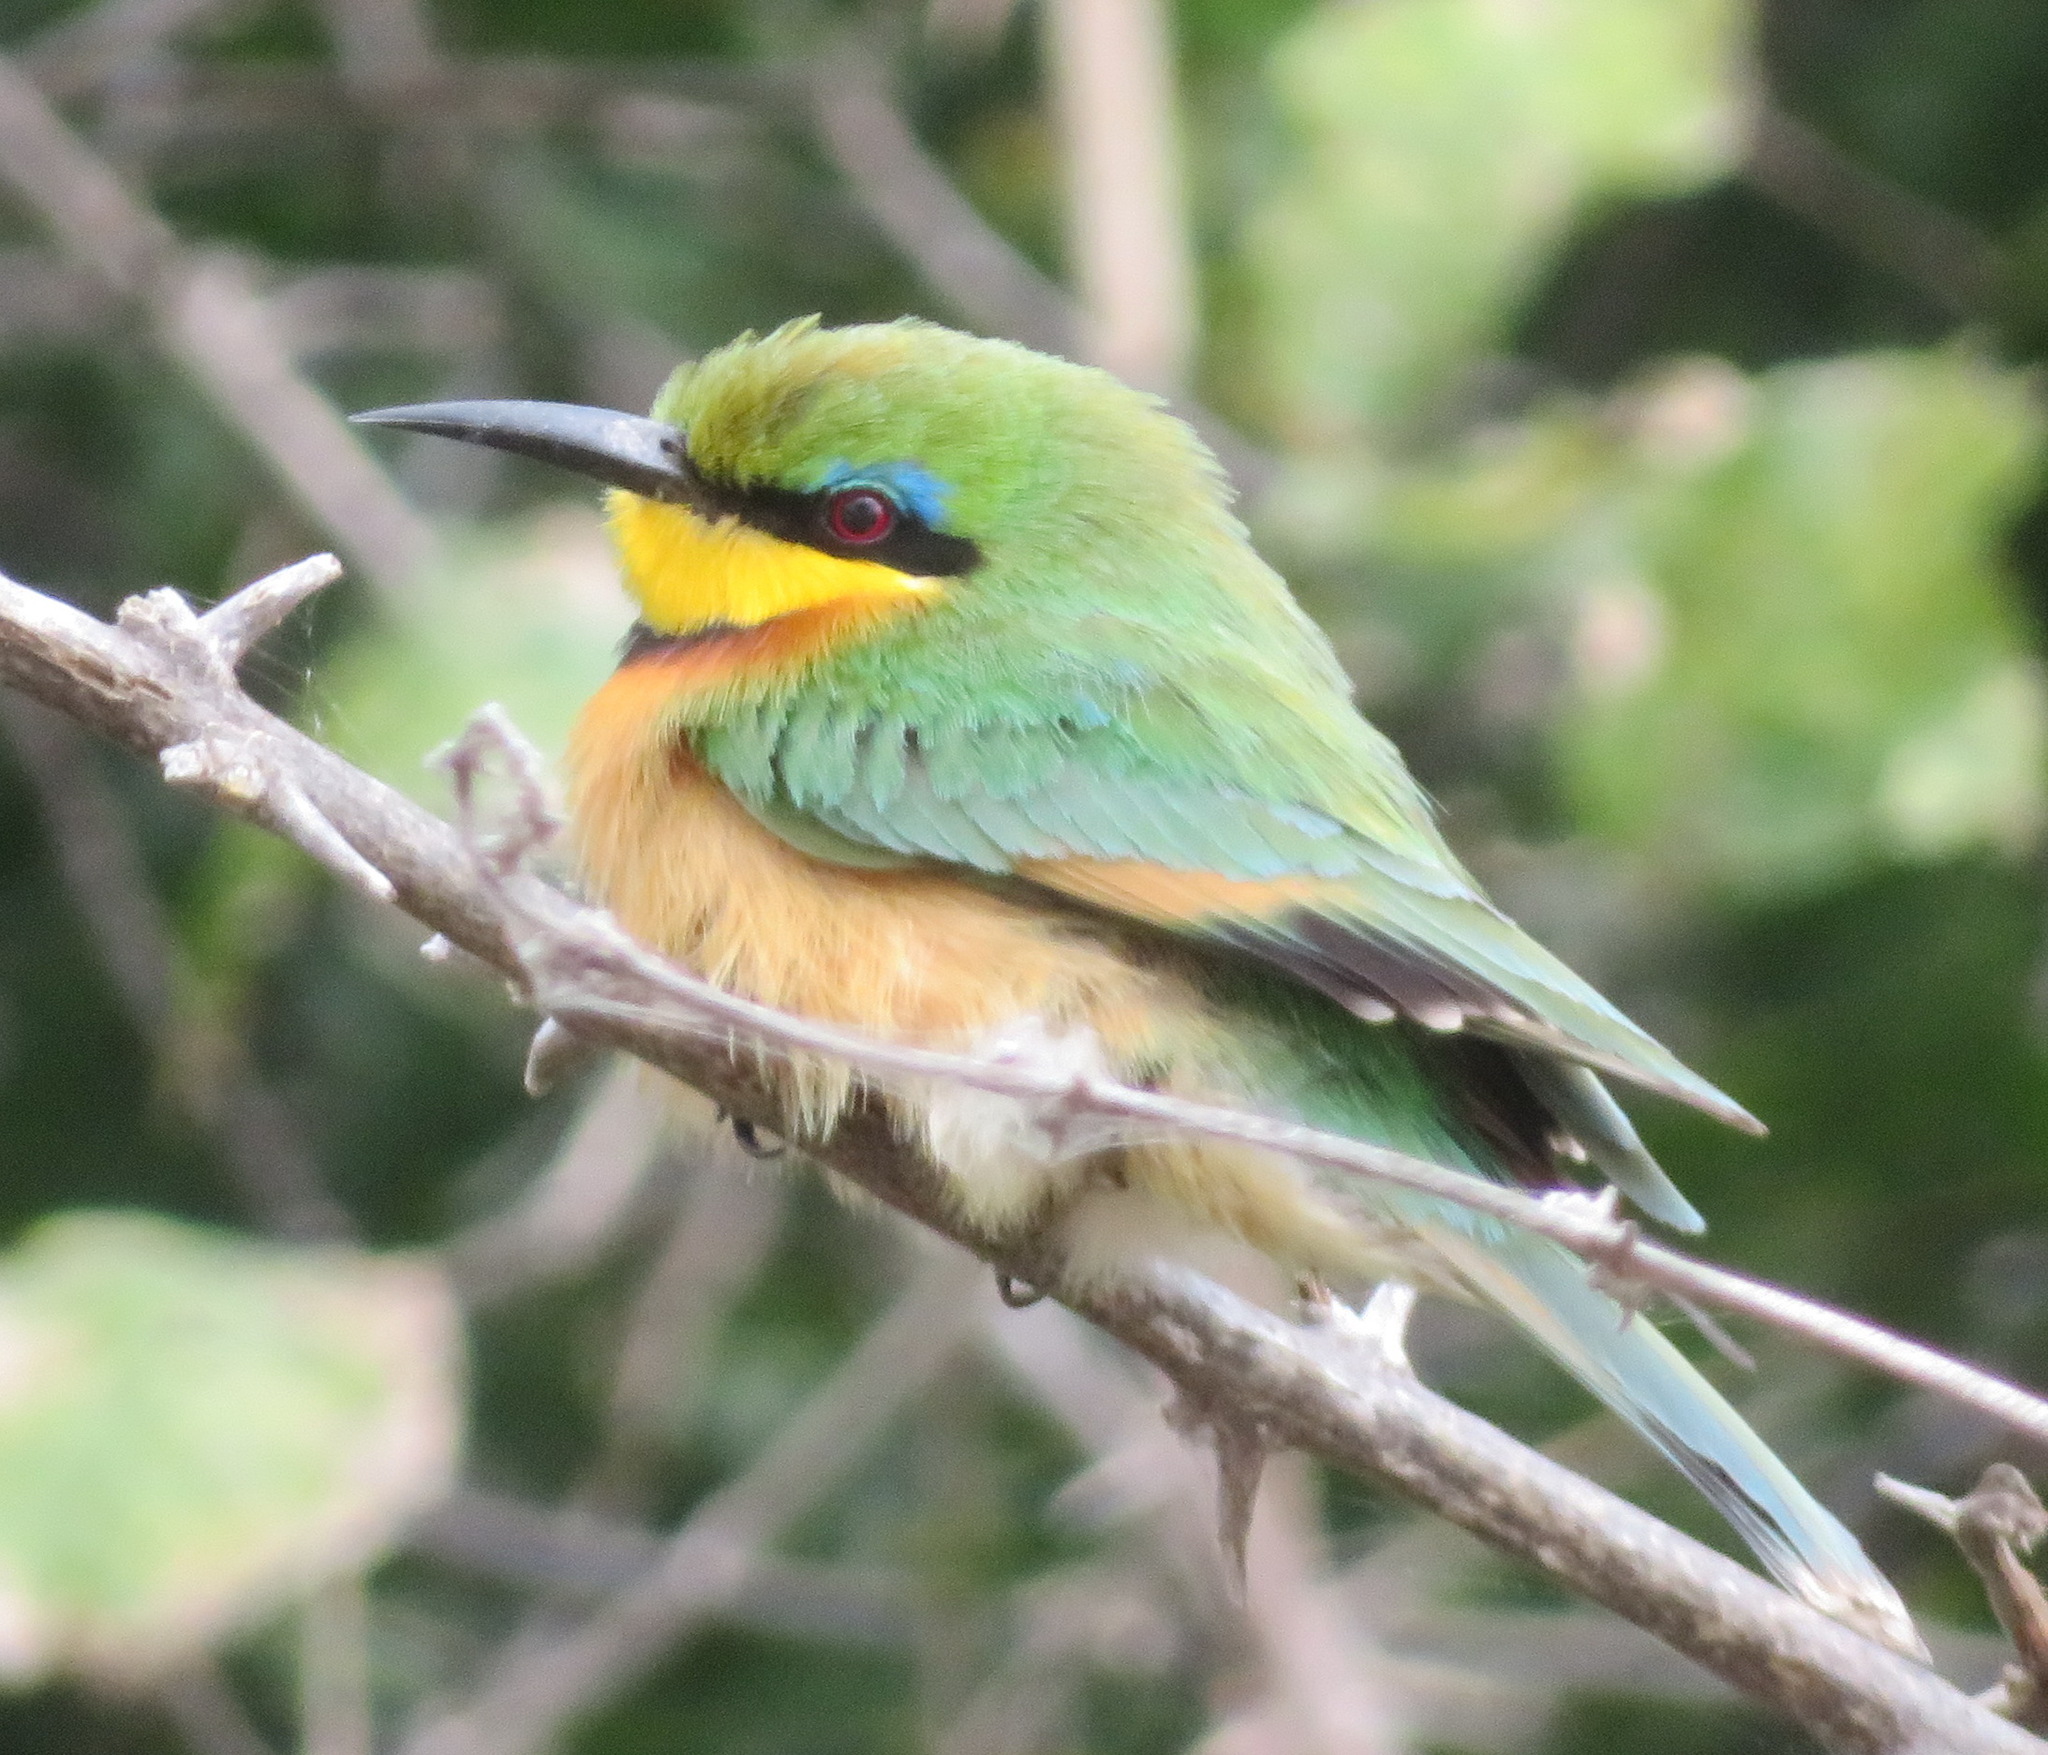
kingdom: Animalia
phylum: Chordata
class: Aves
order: Coraciiformes
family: Meropidae
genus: Merops
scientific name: Merops pusillus
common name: Little bee-eater
